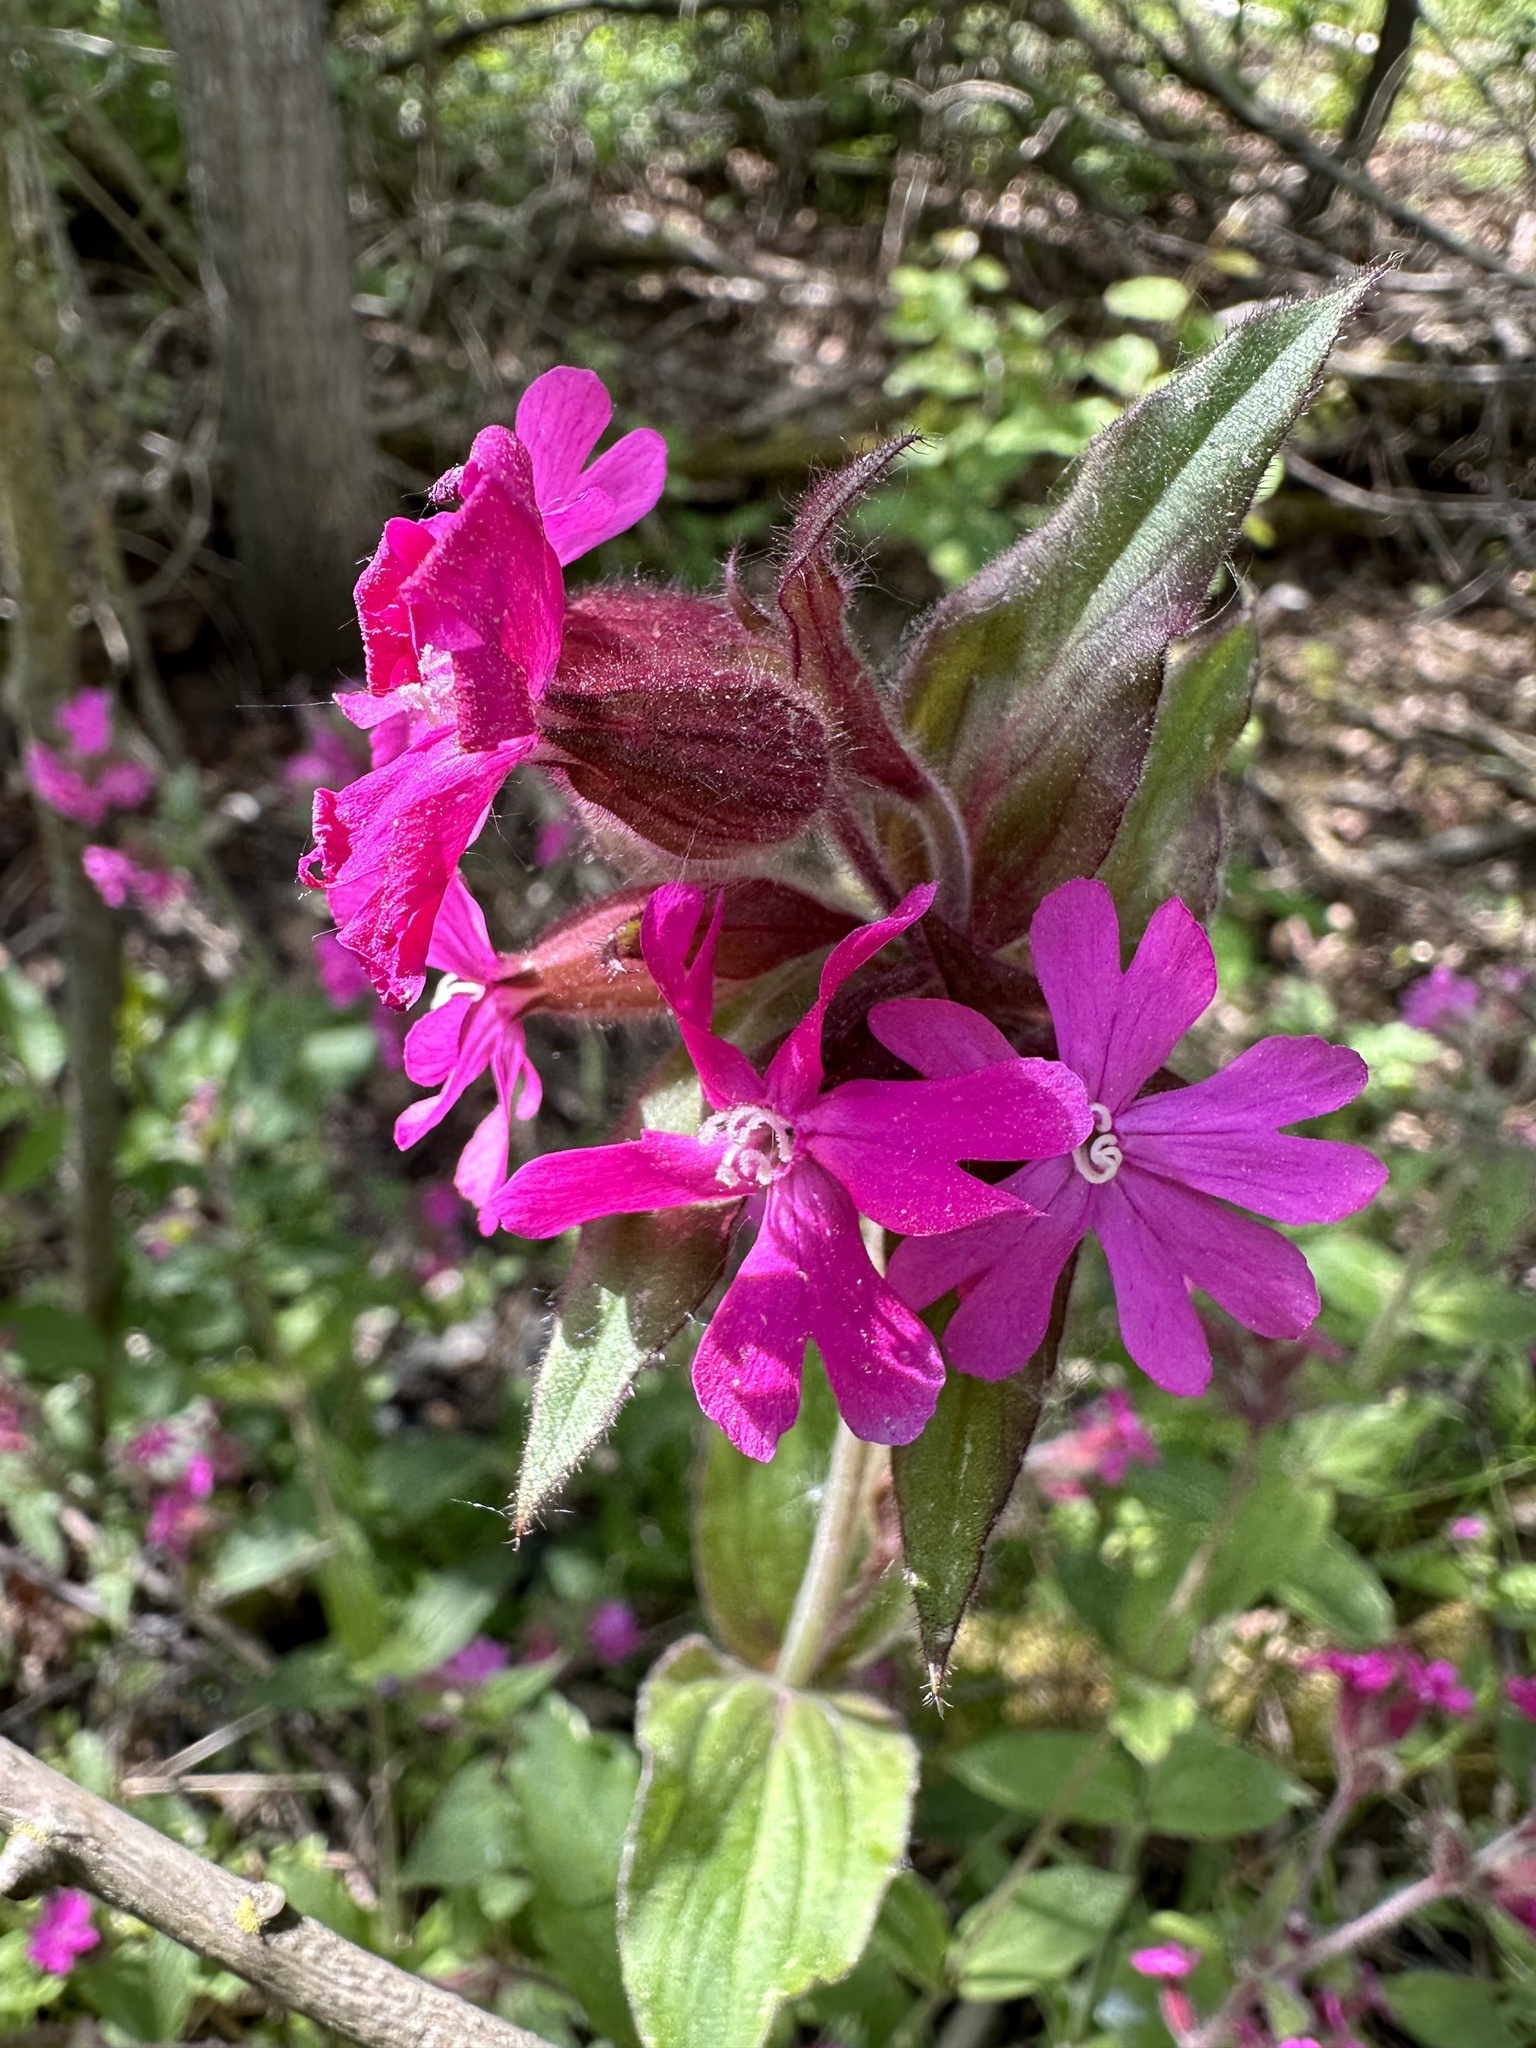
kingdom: Plantae
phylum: Tracheophyta
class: Magnoliopsida
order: Caryophyllales
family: Caryophyllaceae
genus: Silene
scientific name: Silene dioica
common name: Red campion
